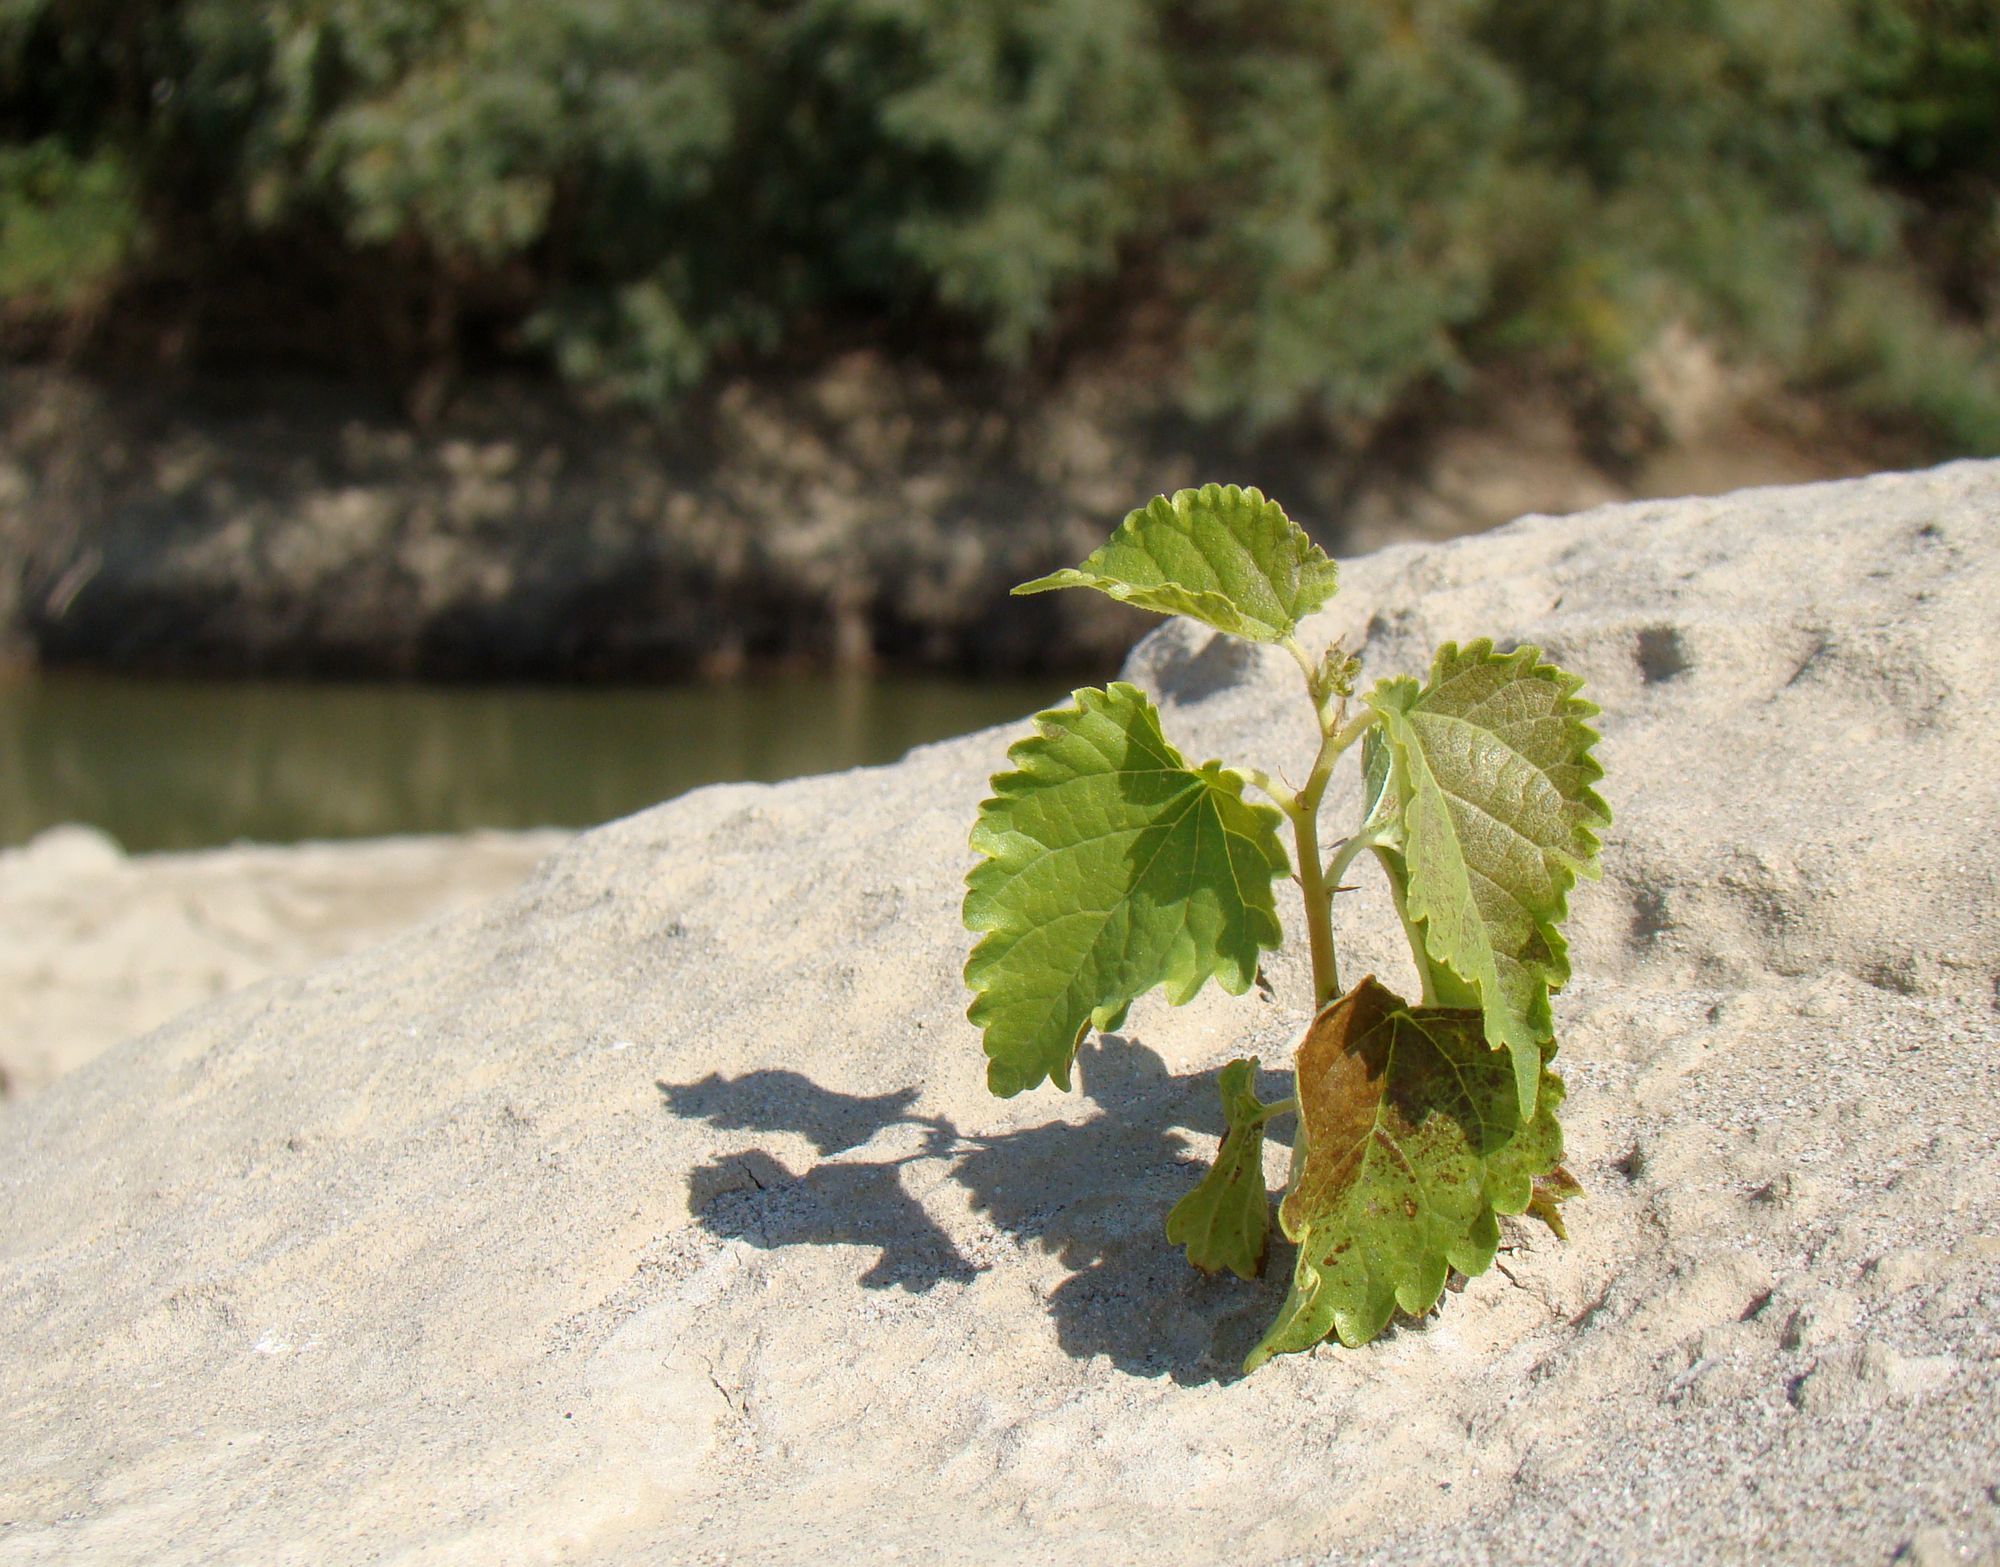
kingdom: Plantae
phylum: Tracheophyta
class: Magnoliopsida
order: Rosales
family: Moraceae
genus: Morus
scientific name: Morus alba
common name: White mulberry
